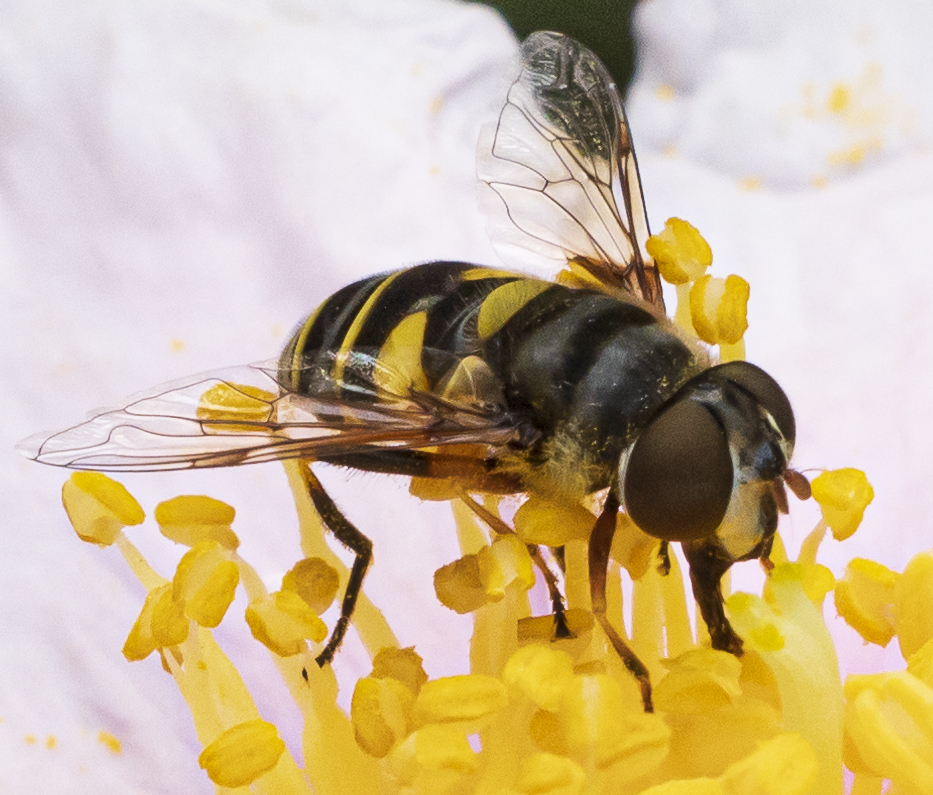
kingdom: Animalia
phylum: Arthropoda
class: Insecta
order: Diptera
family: Syrphidae
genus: Eristalis
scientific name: Eristalis transversa
